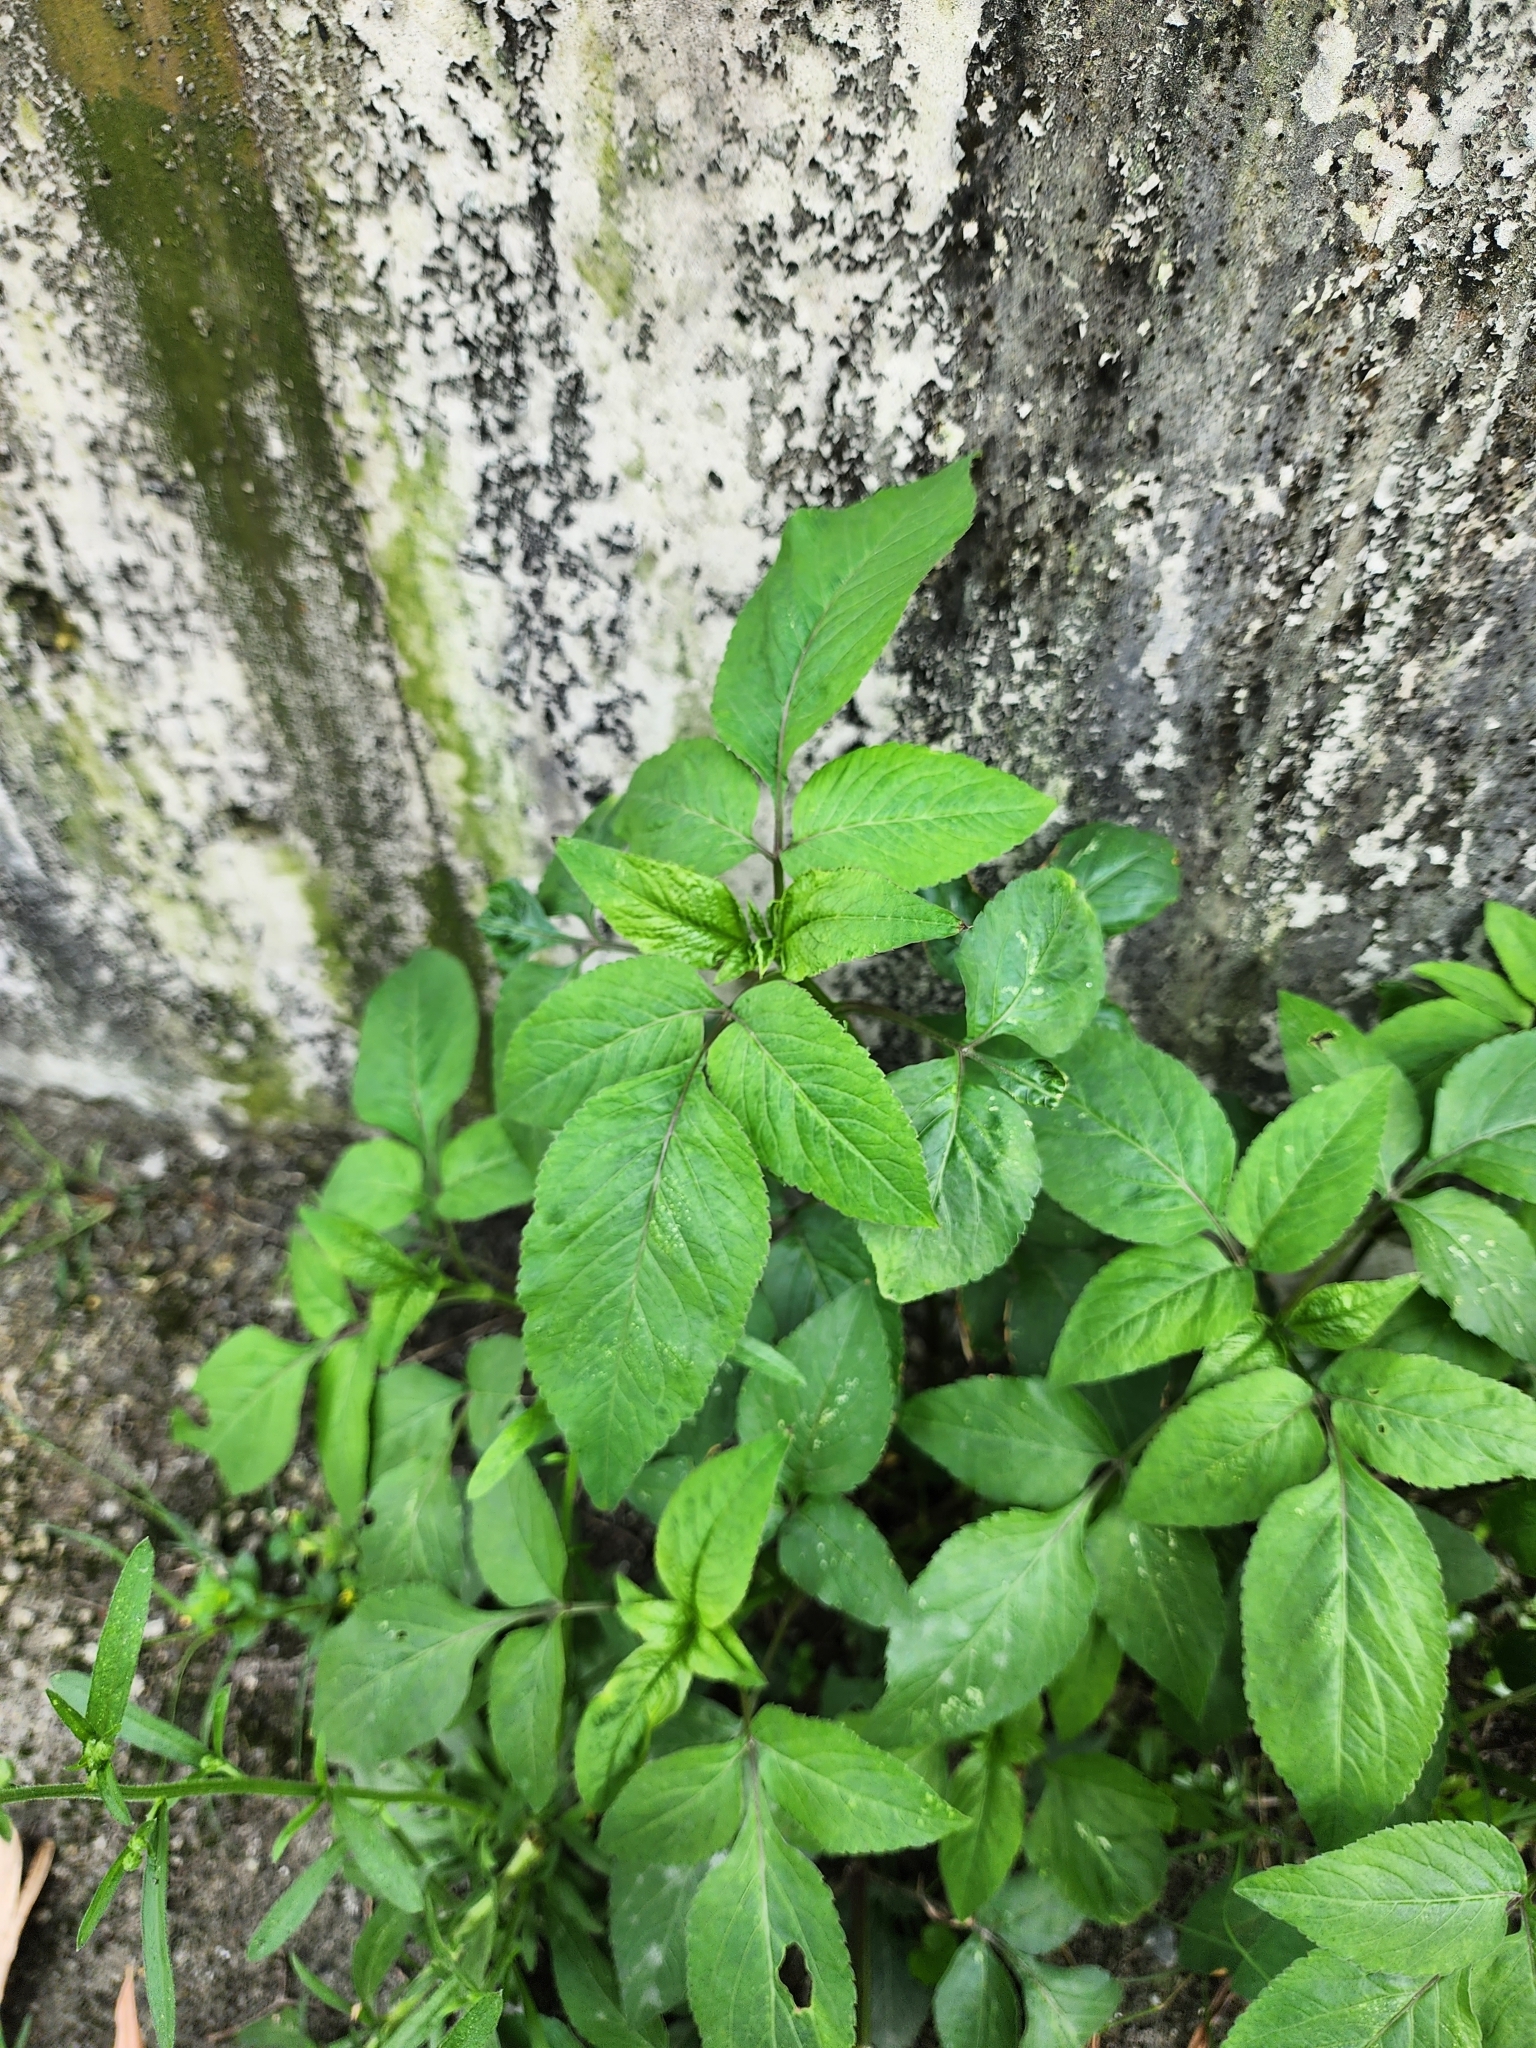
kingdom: Plantae
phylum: Tracheophyta
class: Magnoliopsida
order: Asterales
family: Asteraceae
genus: Bidens
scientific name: Bidens alba
